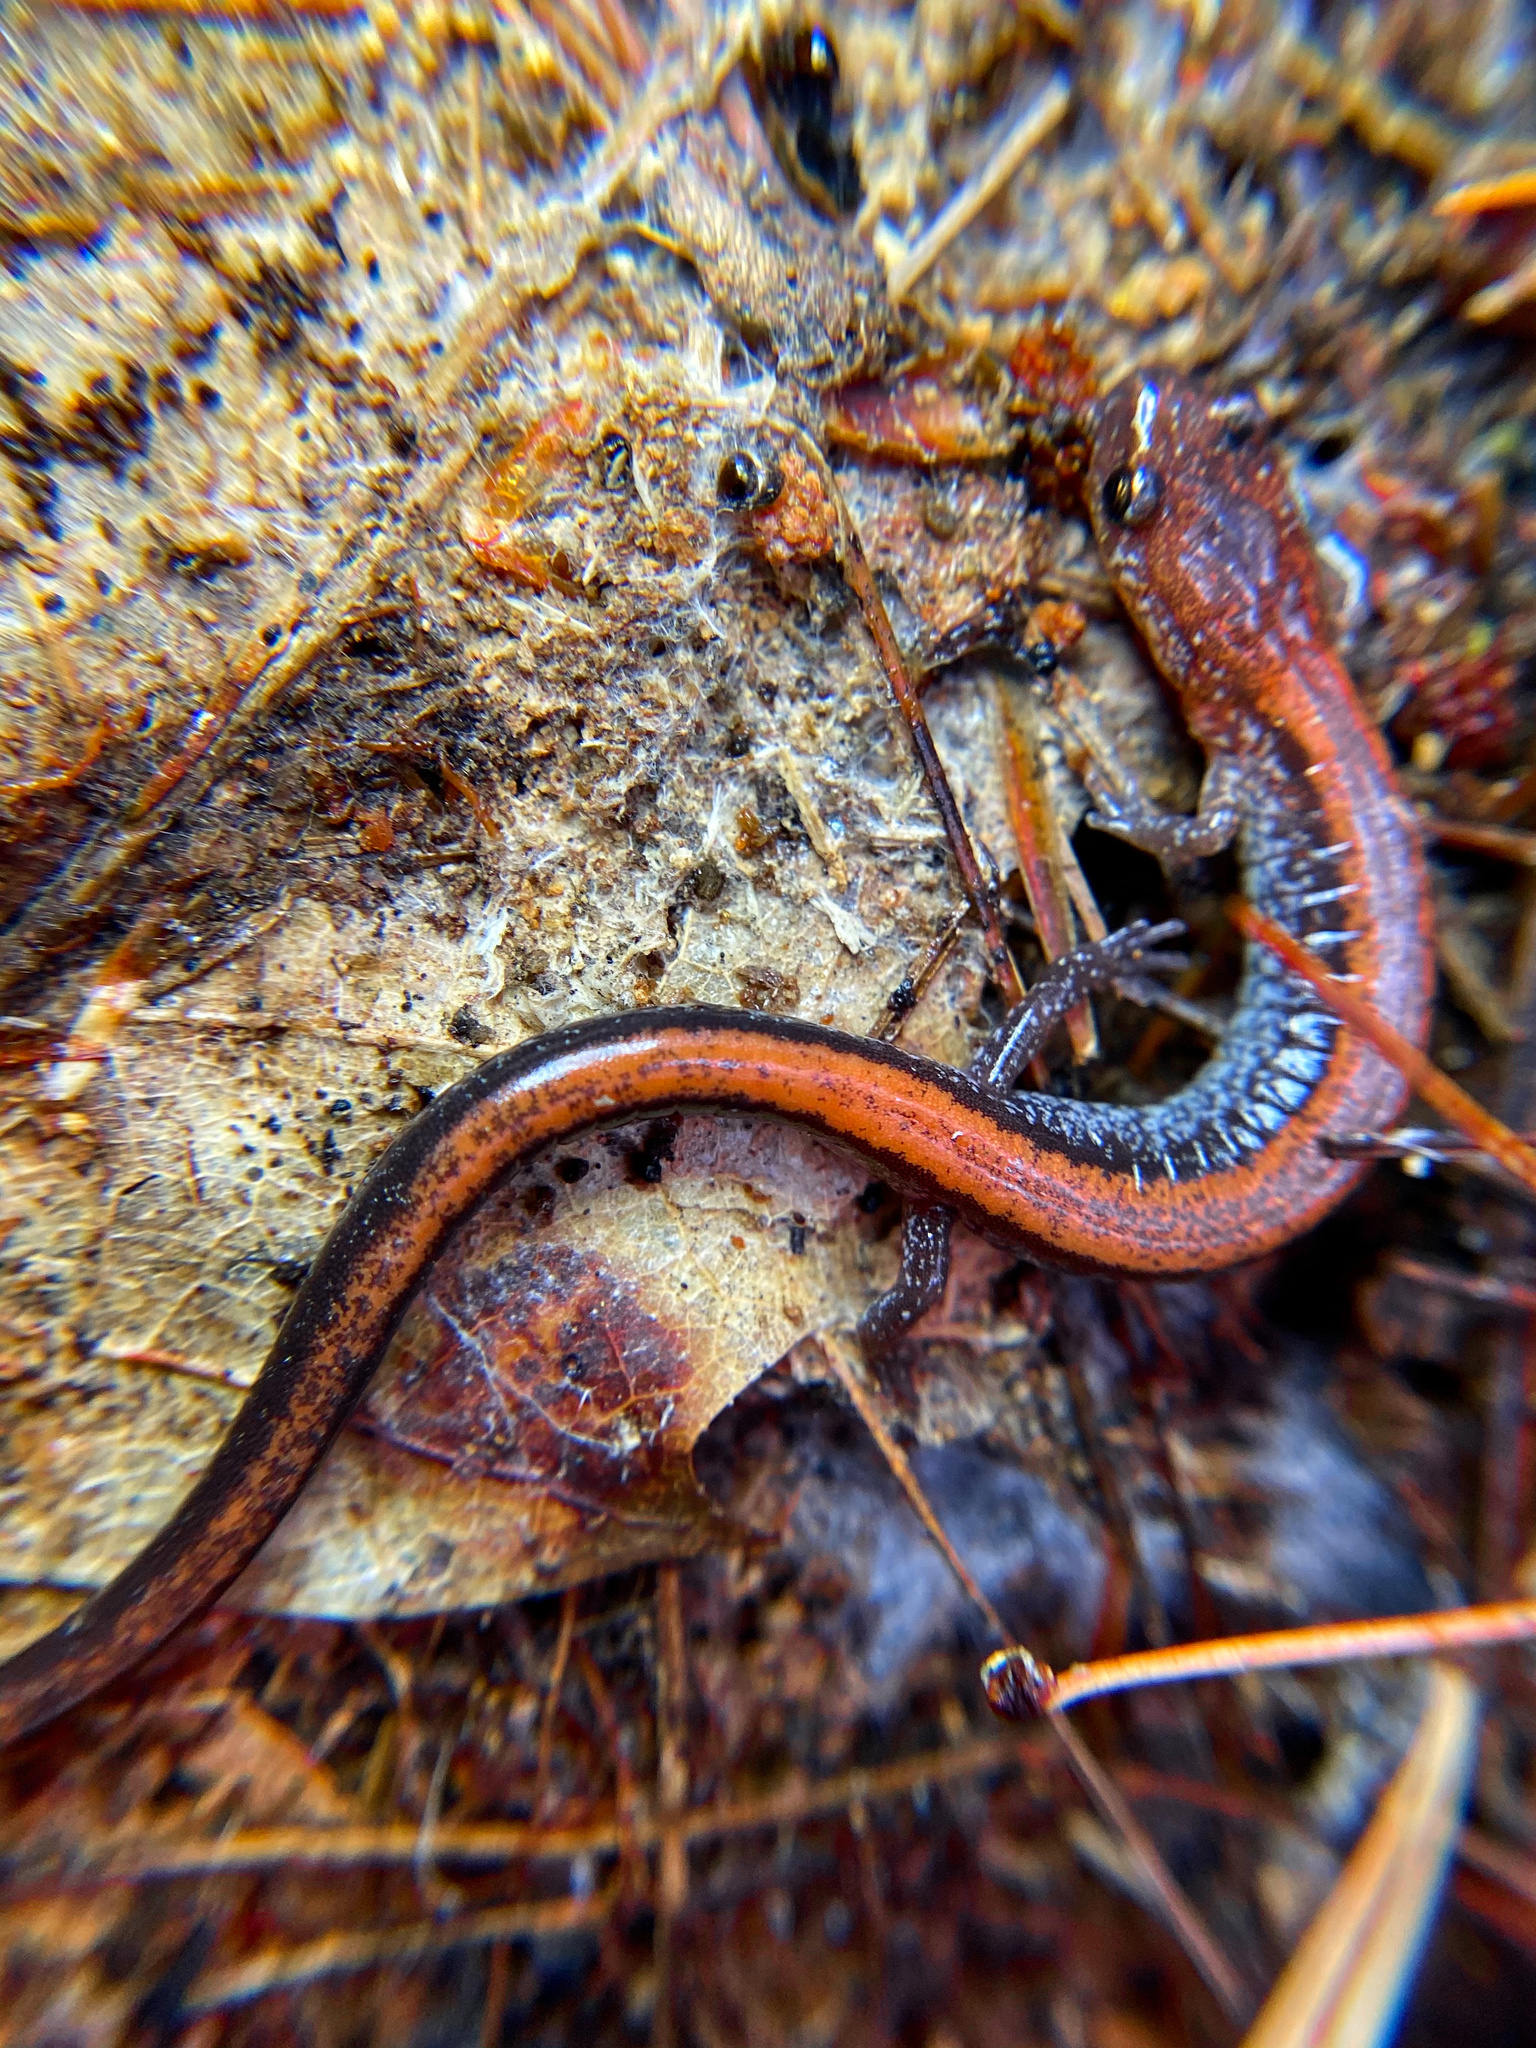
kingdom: Animalia
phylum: Chordata
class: Amphibia
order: Caudata
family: Plethodontidae
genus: Plethodon
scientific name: Plethodon cinereus
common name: Redback salamander
